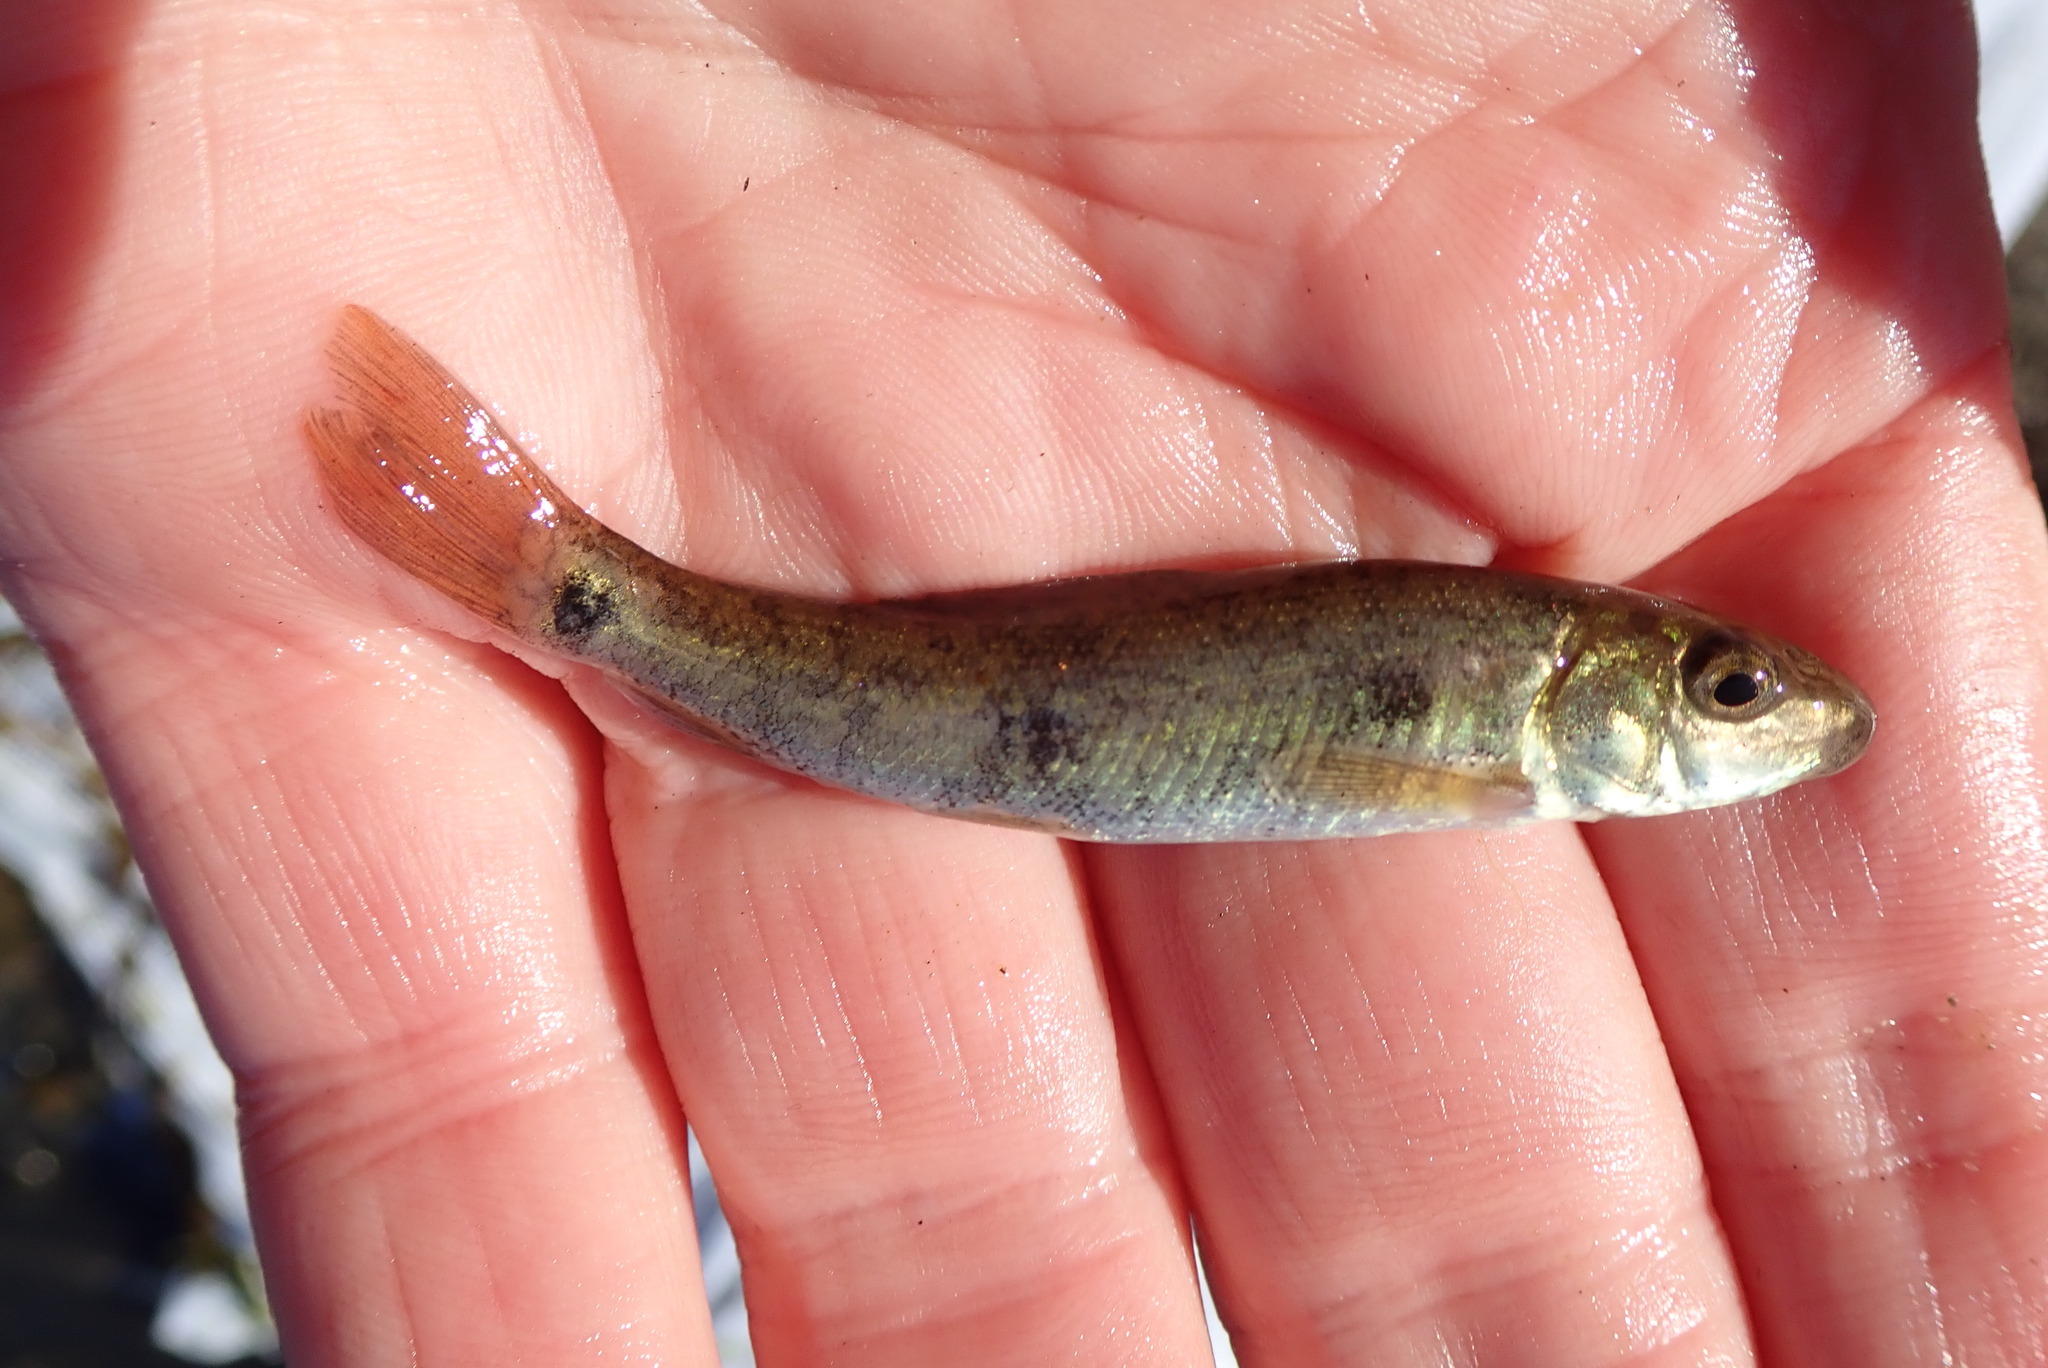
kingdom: Animalia
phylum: Chordata
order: Cypriniformes
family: Catostomidae
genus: Catostomus
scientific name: Catostomus commersonii
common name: White sucker
